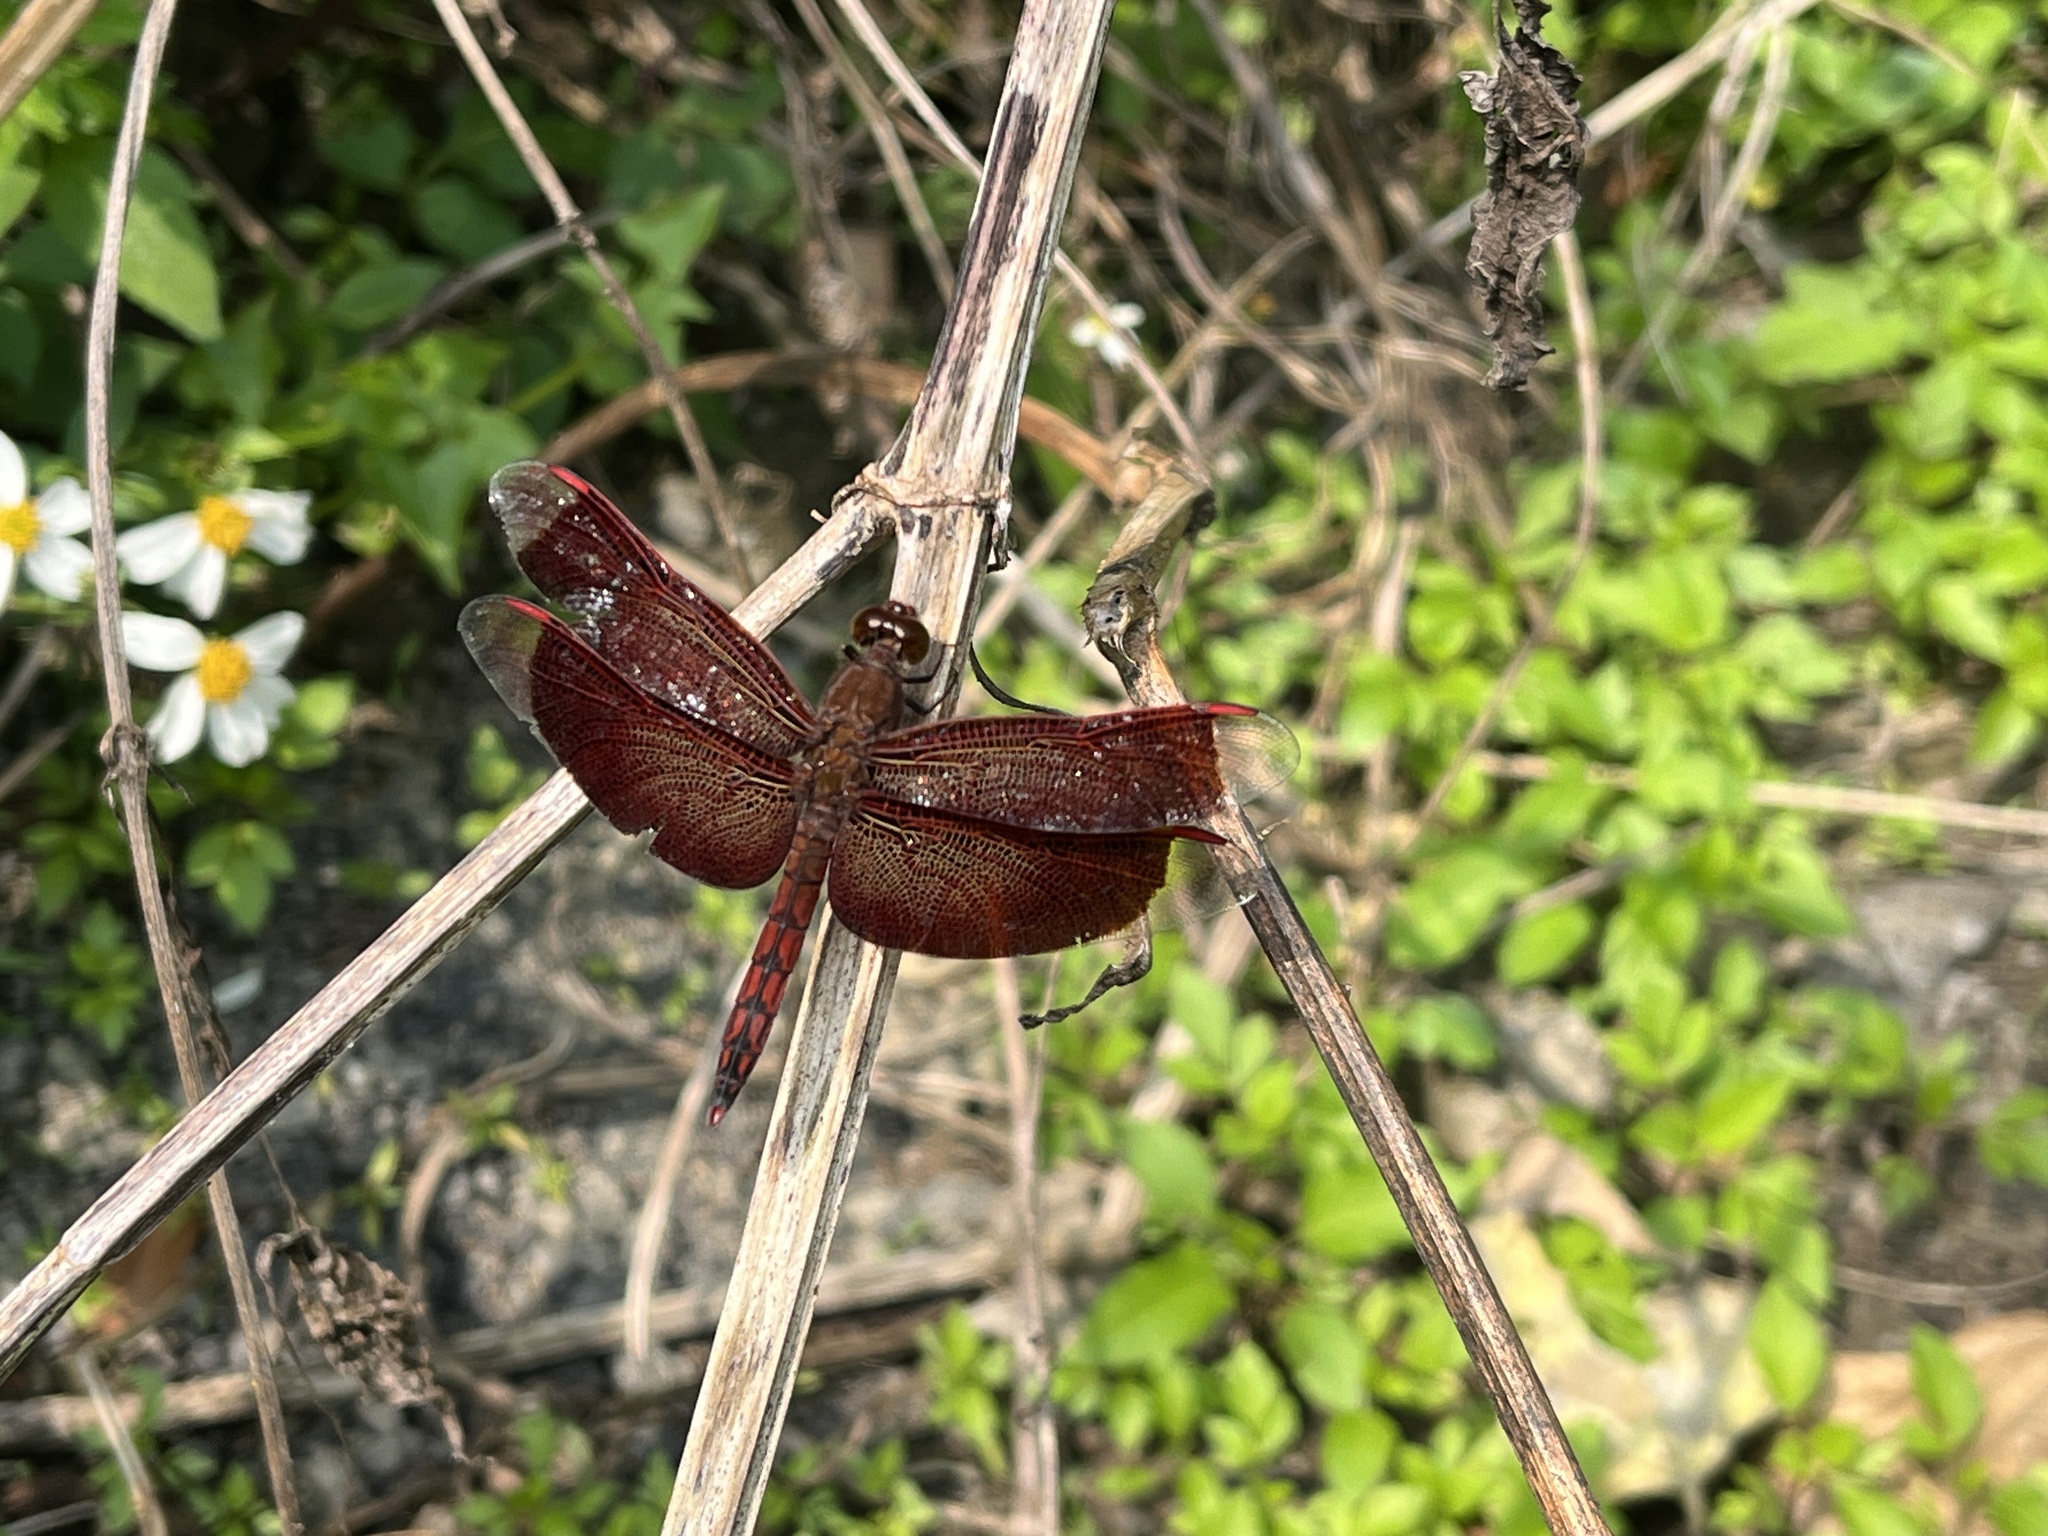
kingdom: Animalia
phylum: Arthropoda
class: Insecta
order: Odonata
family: Libellulidae
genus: Neurothemis
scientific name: Neurothemis taiwanensis
